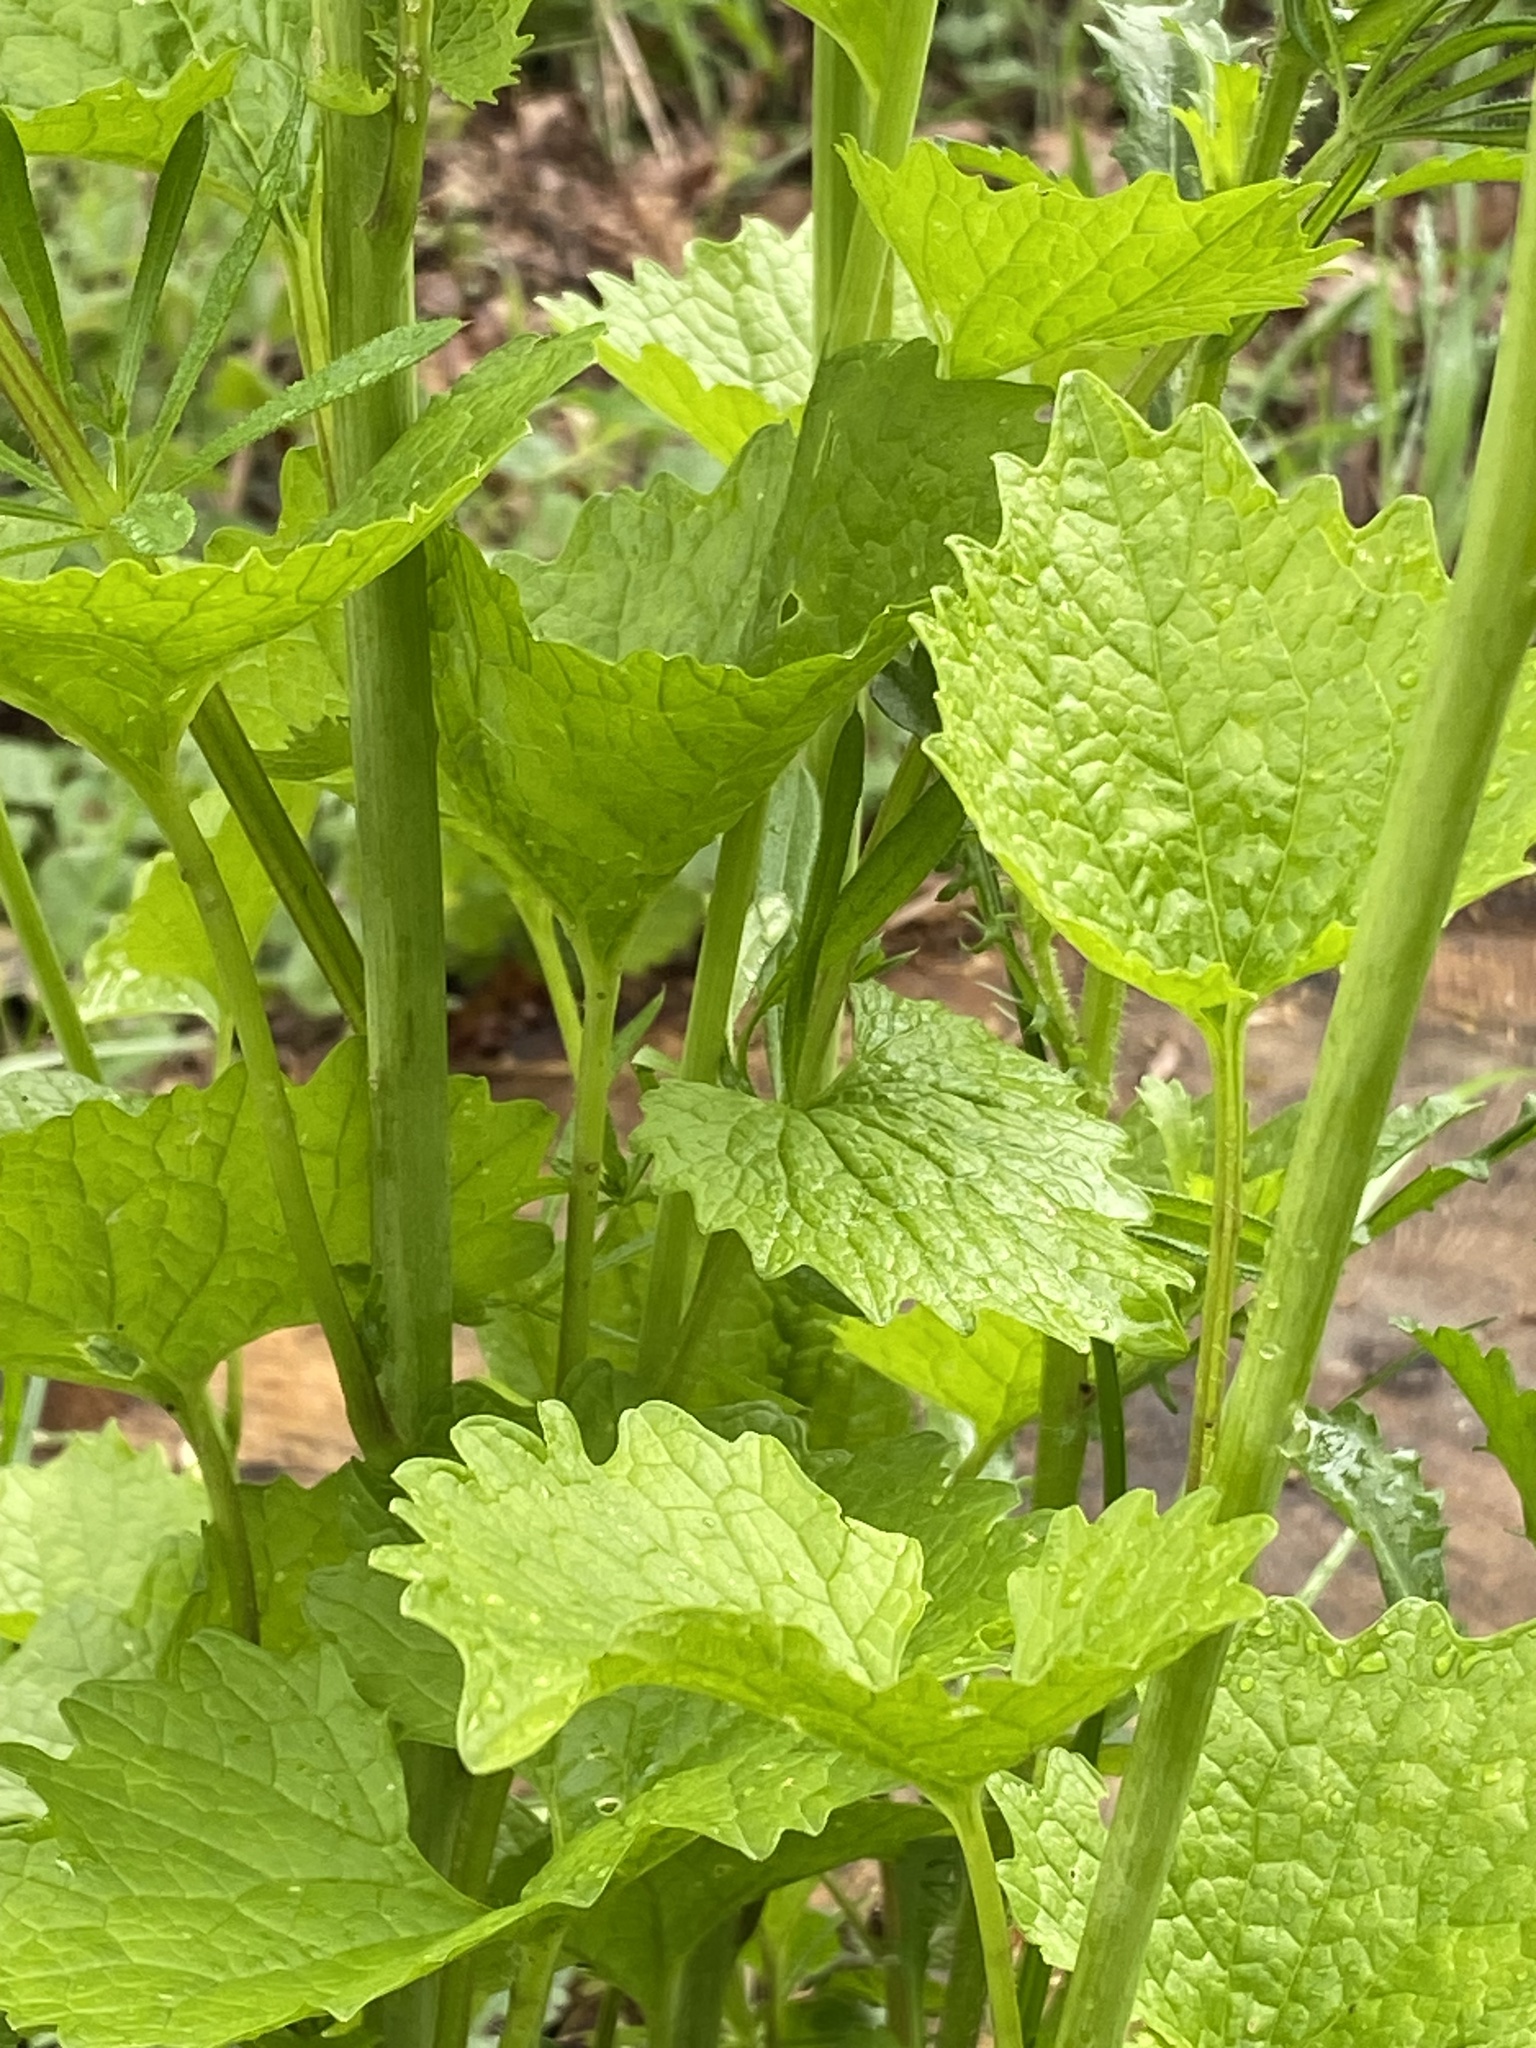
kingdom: Plantae
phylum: Tracheophyta
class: Magnoliopsida
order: Brassicales
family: Brassicaceae
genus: Alliaria
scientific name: Alliaria petiolata
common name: Garlic mustard
